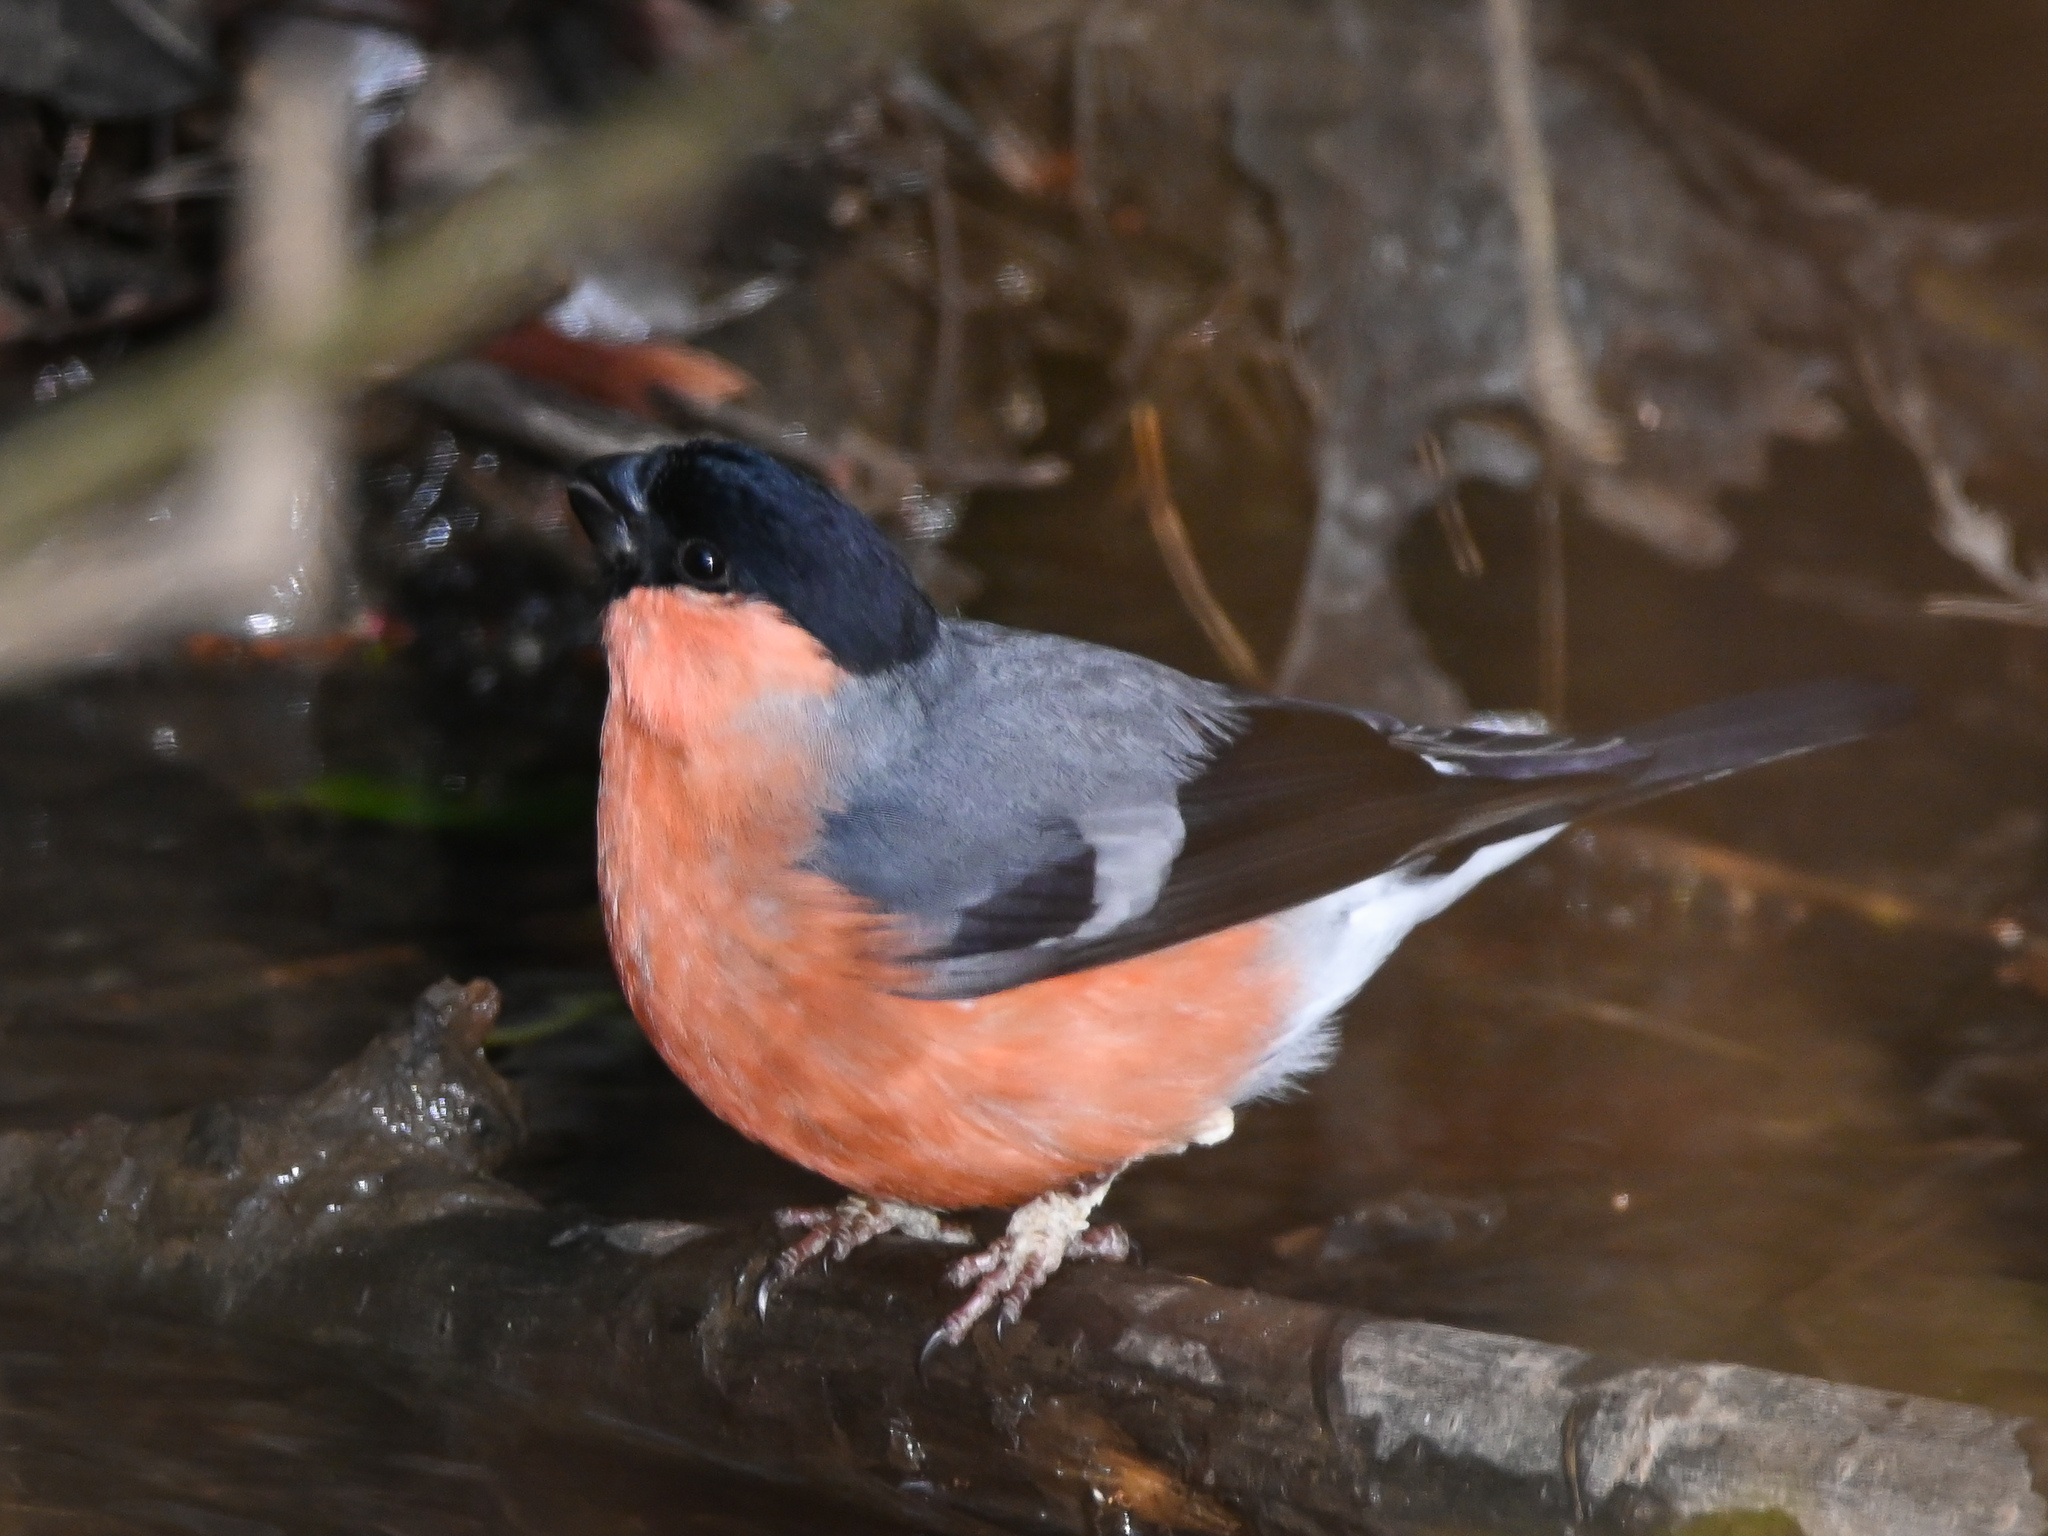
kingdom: Animalia
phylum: Chordata
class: Aves
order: Passeriformes
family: Fringillidae
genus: Pyrrhula
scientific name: Pyrrhula pyrrhula
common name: Eurasian bullfinch
